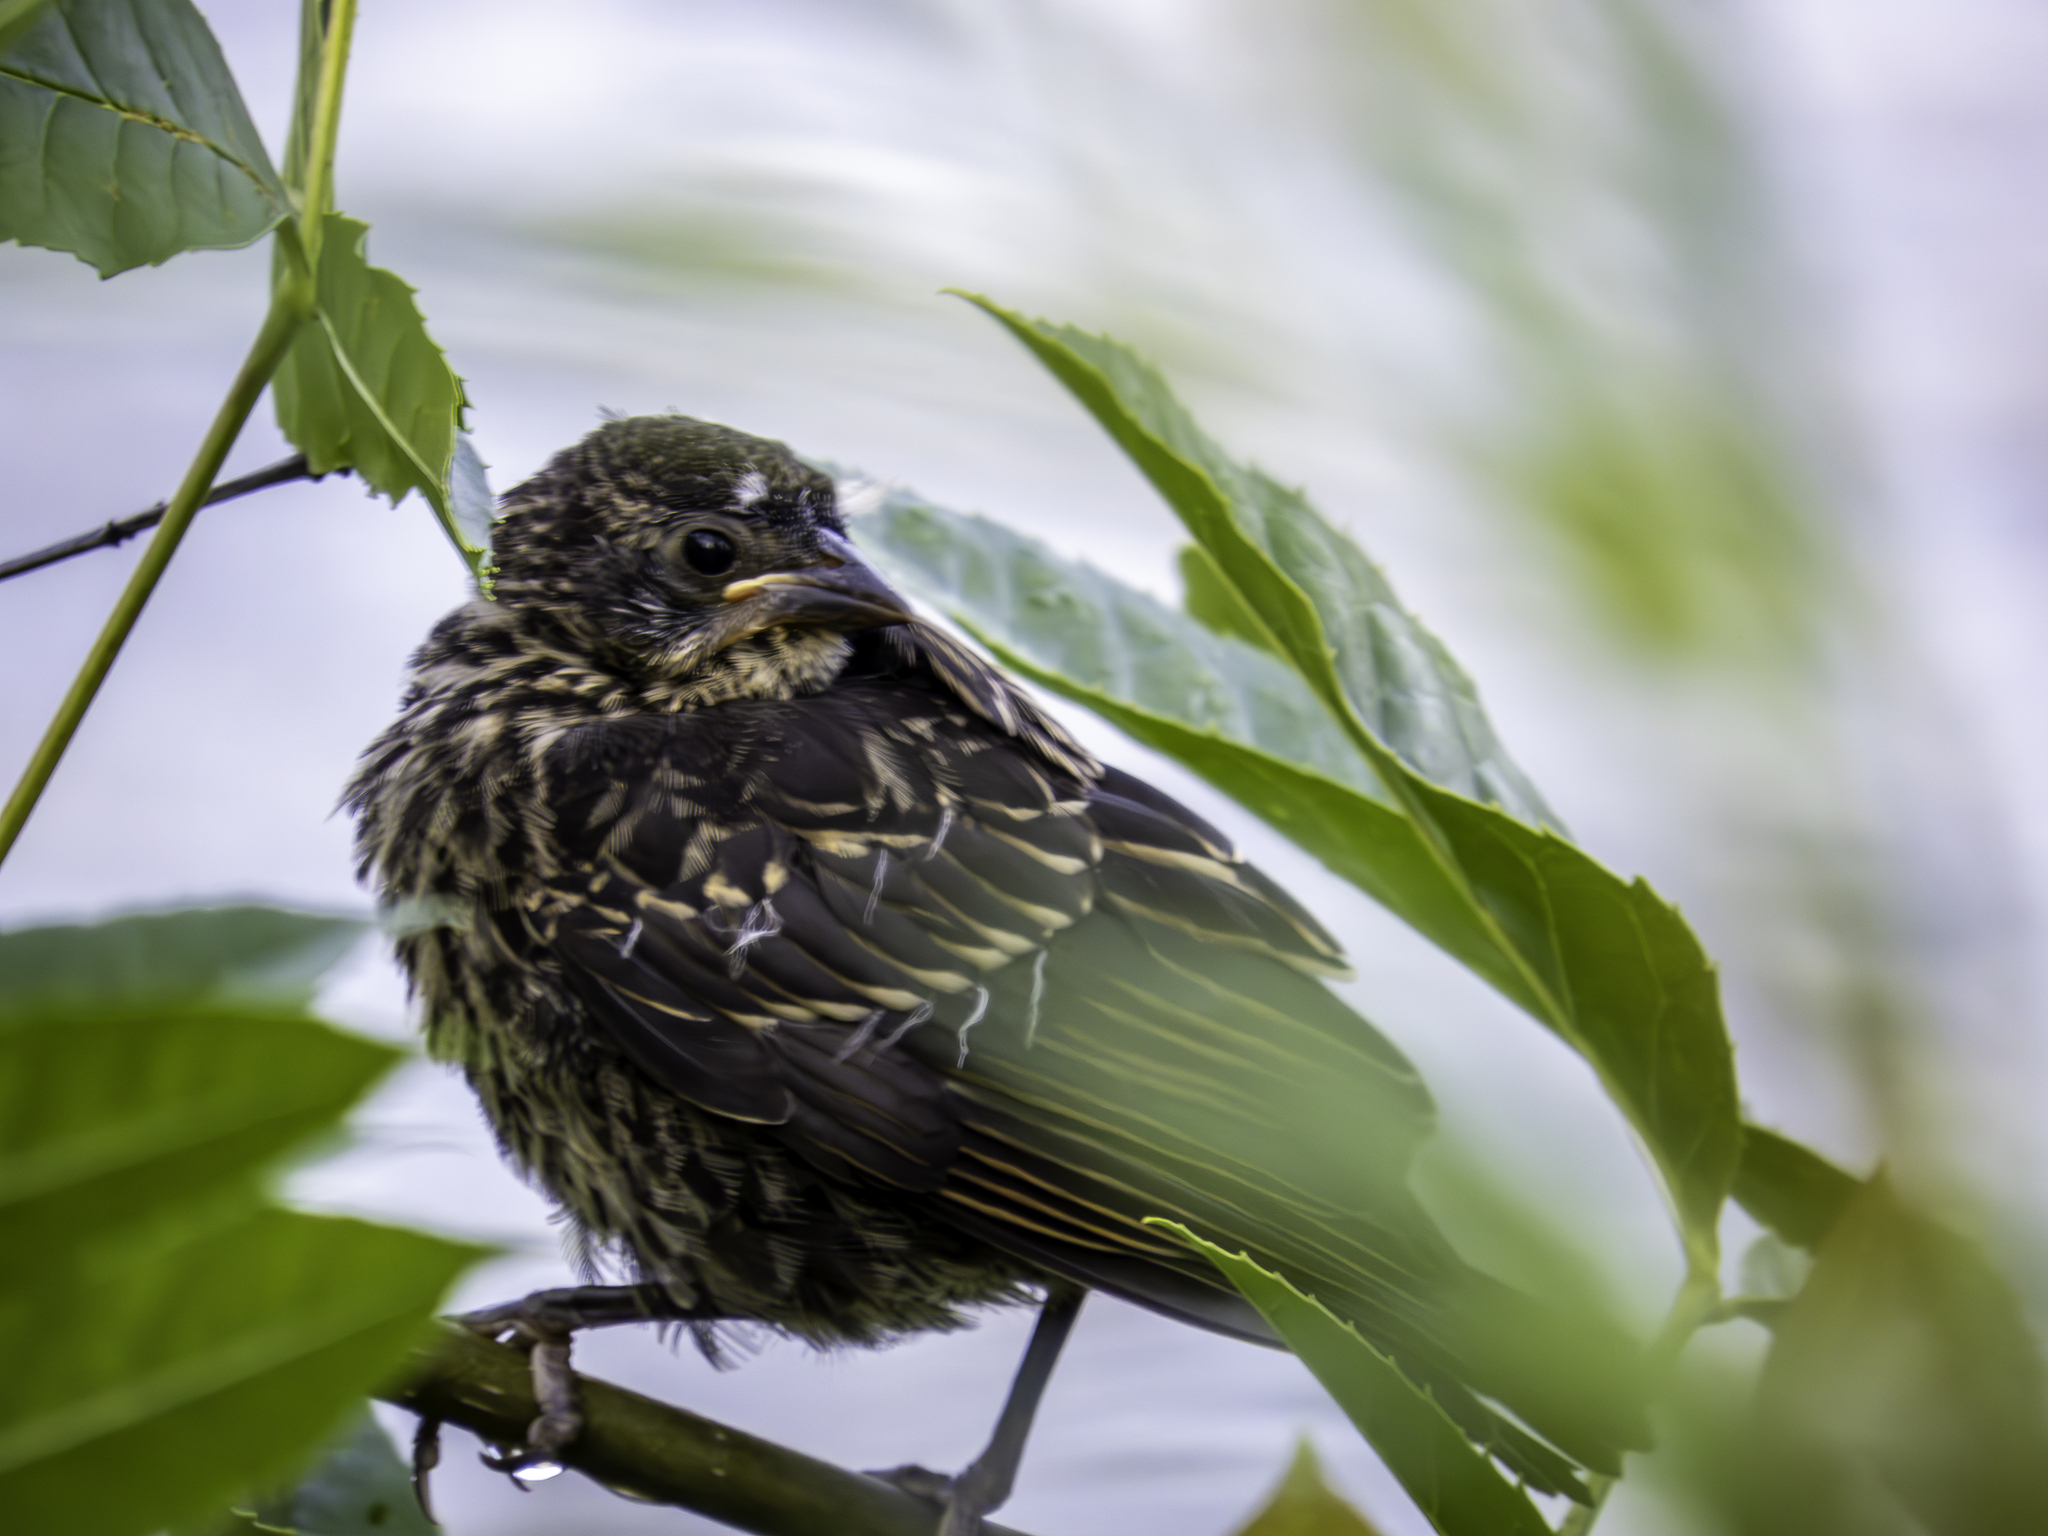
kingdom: Animalia
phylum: Chordata
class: Aves
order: Passeriformes
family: Icteridae
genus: Agelaius
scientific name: Agelaius phoeniceus
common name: Red-winged blackbird
